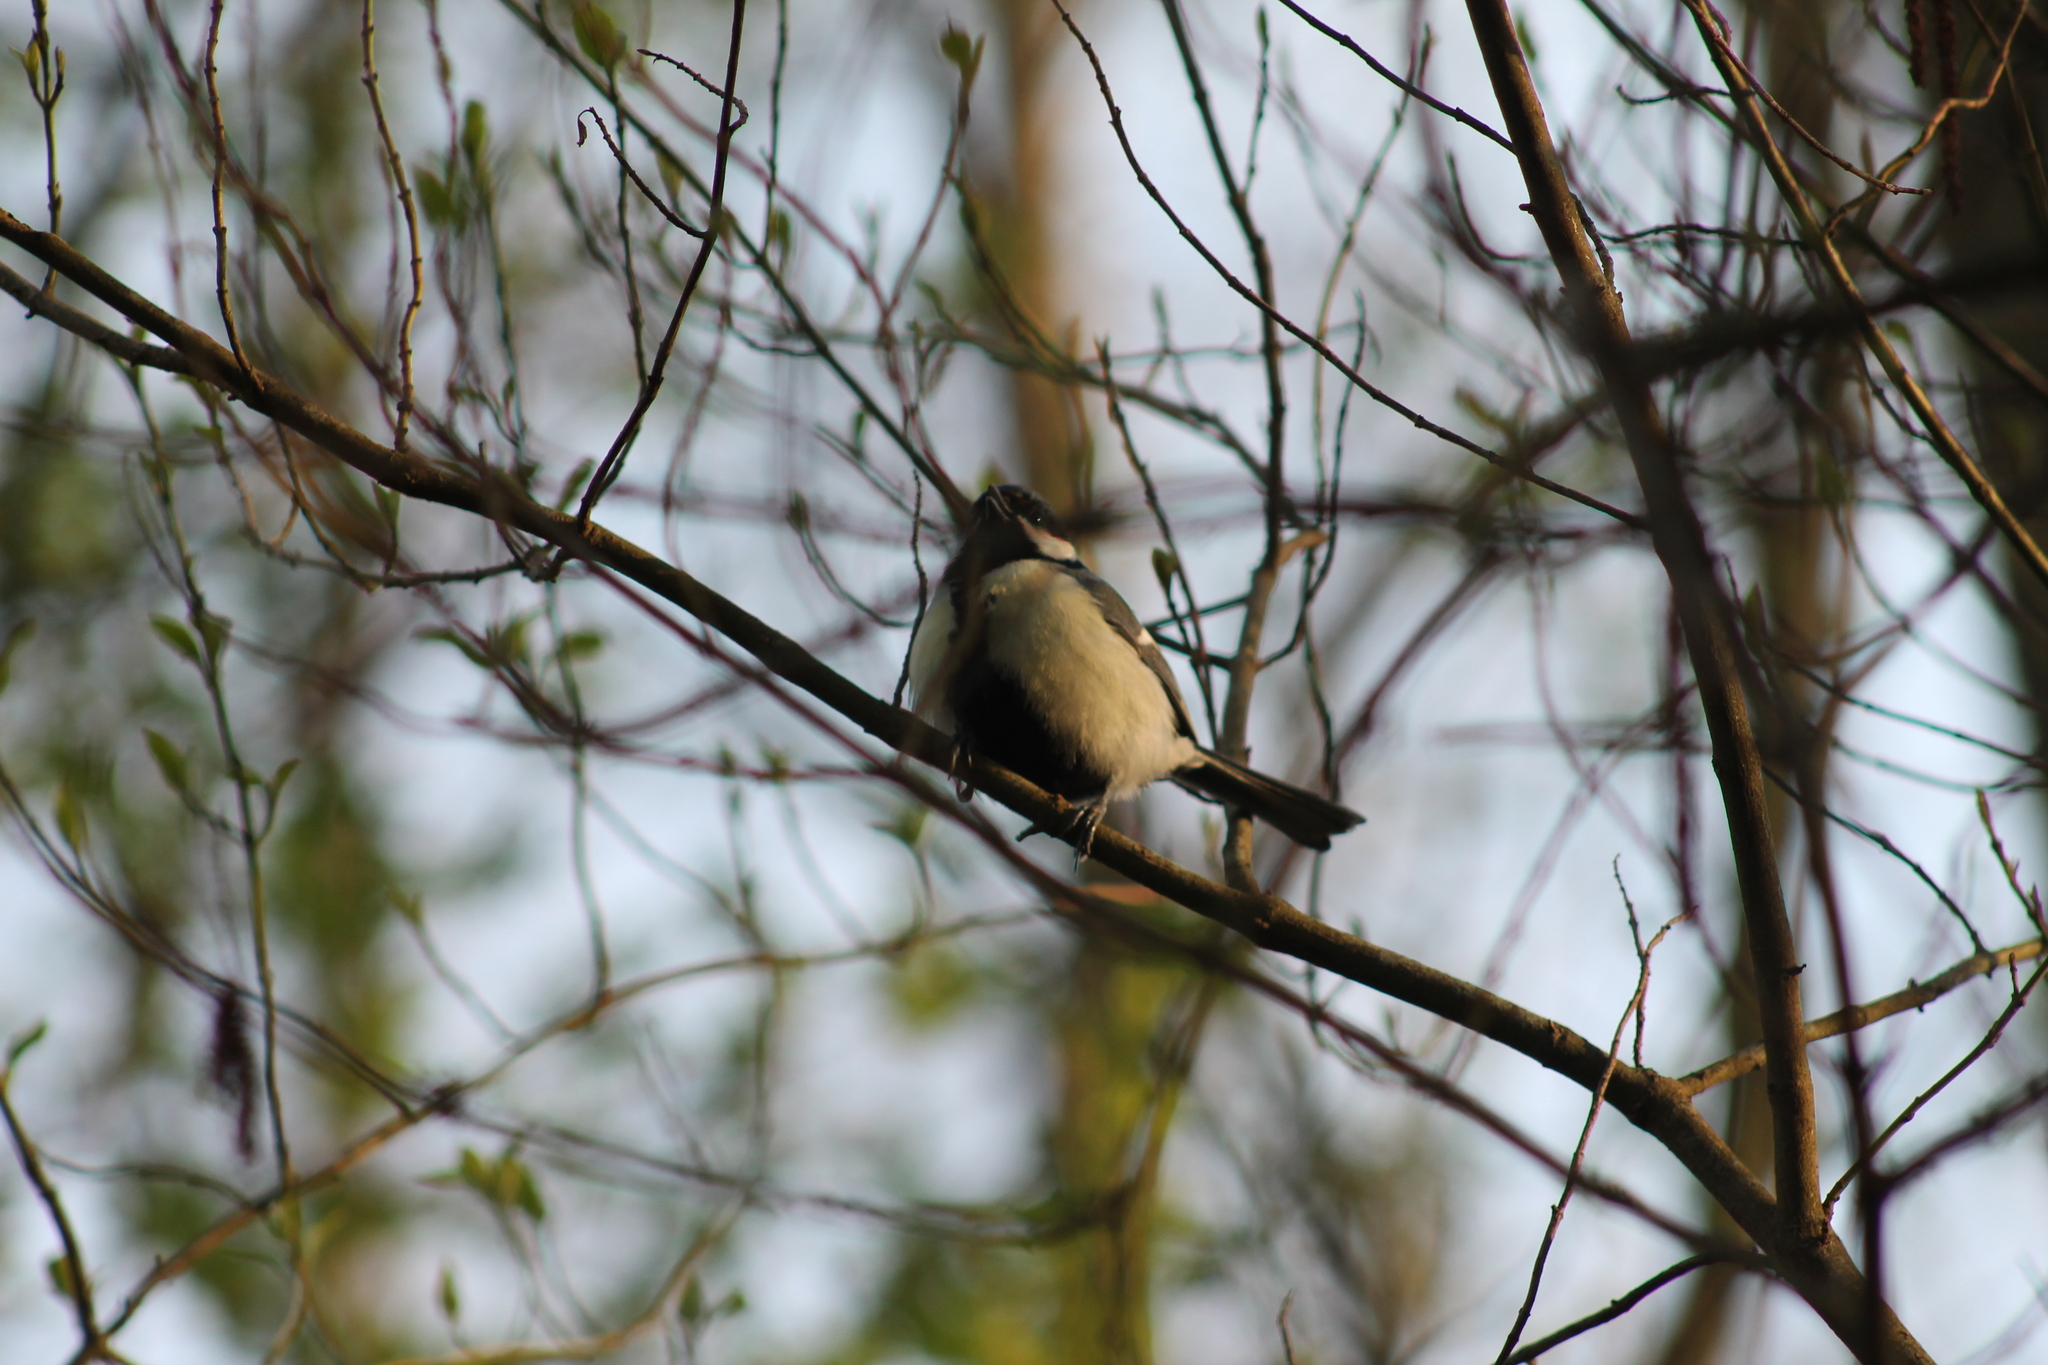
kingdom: Animalia
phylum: Chordata
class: Aves
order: Passeriformes
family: Paridae
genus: Parus
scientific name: Parus major
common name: Great tit
